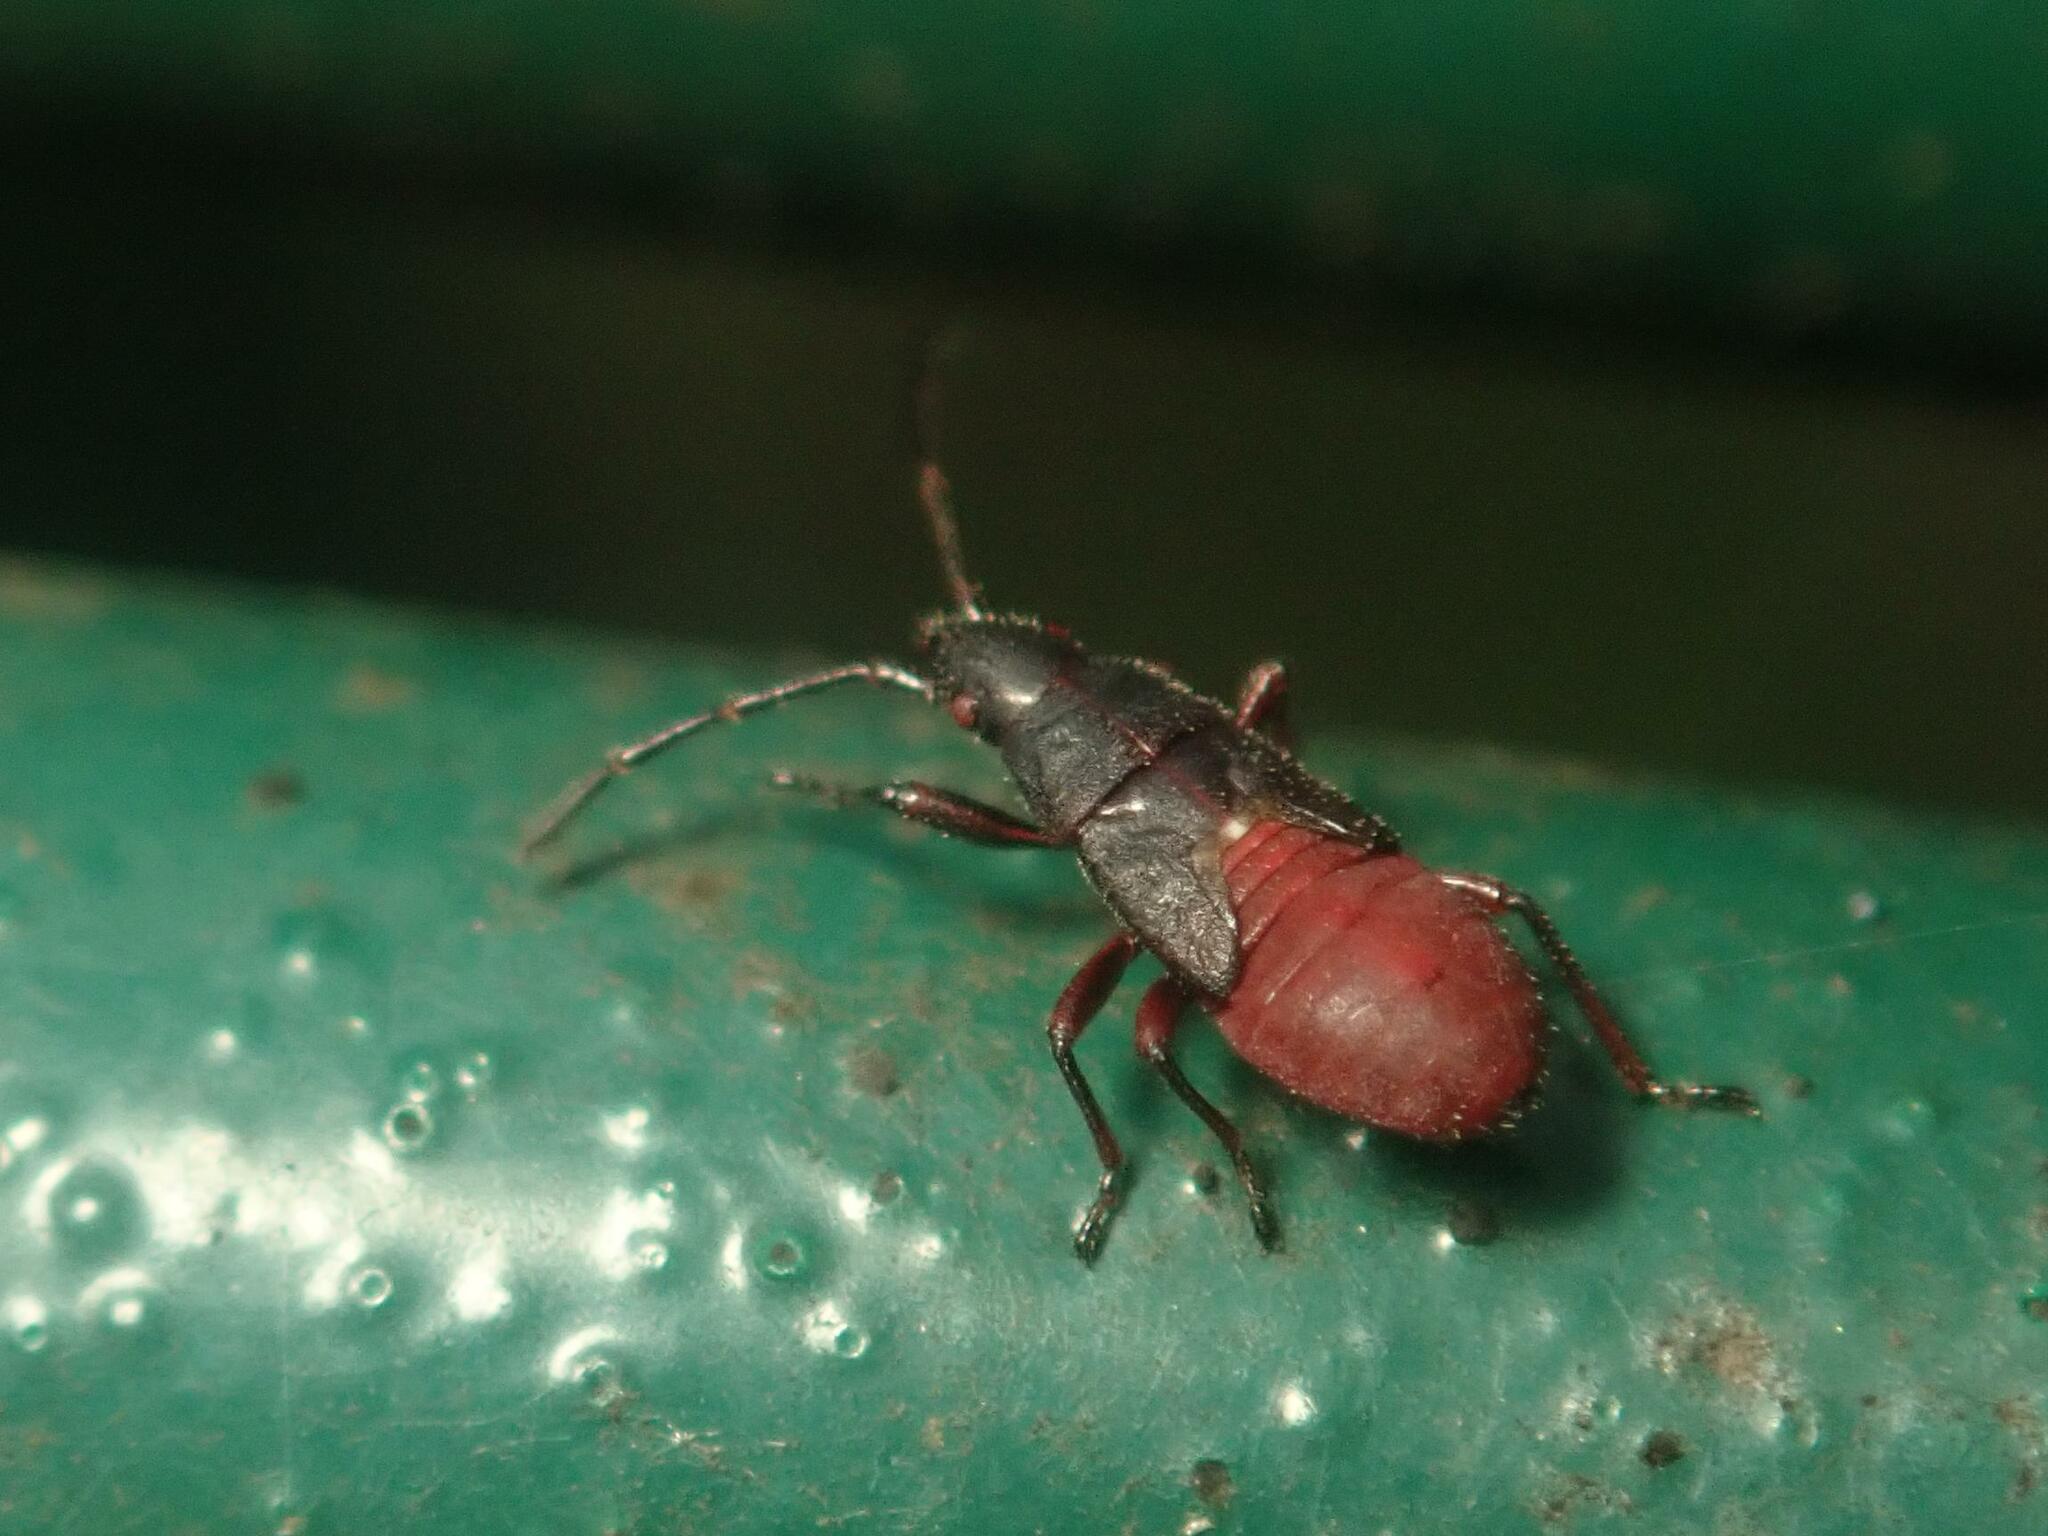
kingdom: Animalia
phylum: Arthropoda
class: Insecta
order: Hemiptera
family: Oxycarenidae
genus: Oxycarenus
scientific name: Oxycarenus lavaterae
